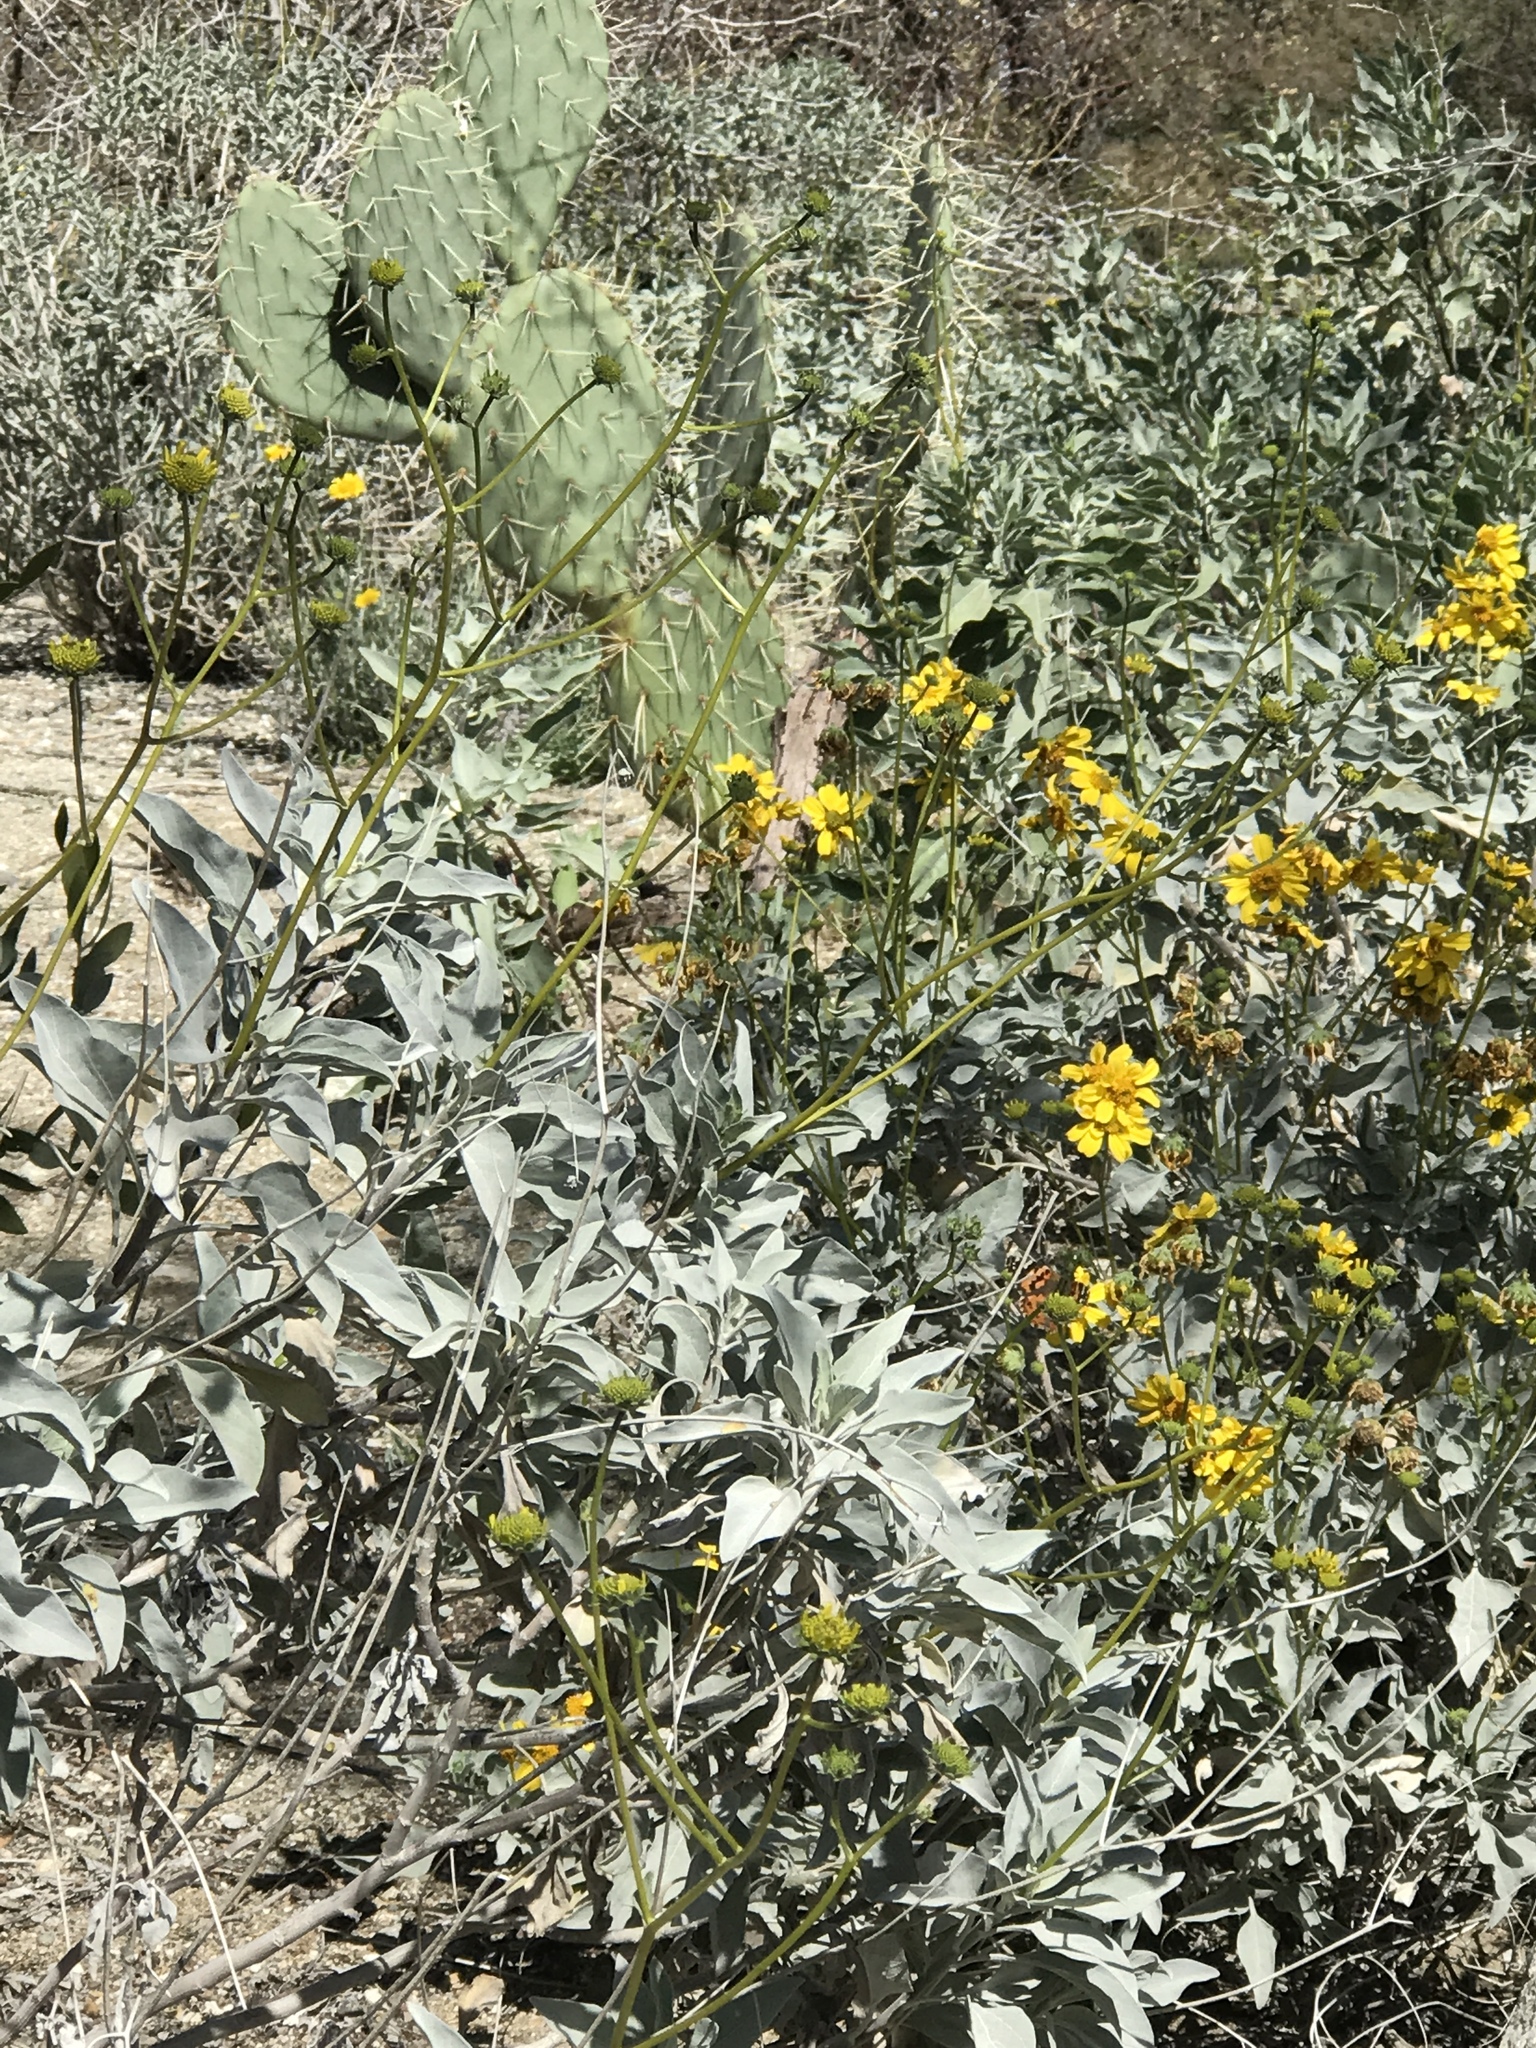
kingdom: Animalia
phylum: Arthropoda
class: Insecta
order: Lepidoptera
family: Nymphalidae
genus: Vanessa
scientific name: Vanessa cardui
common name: Painted lady
